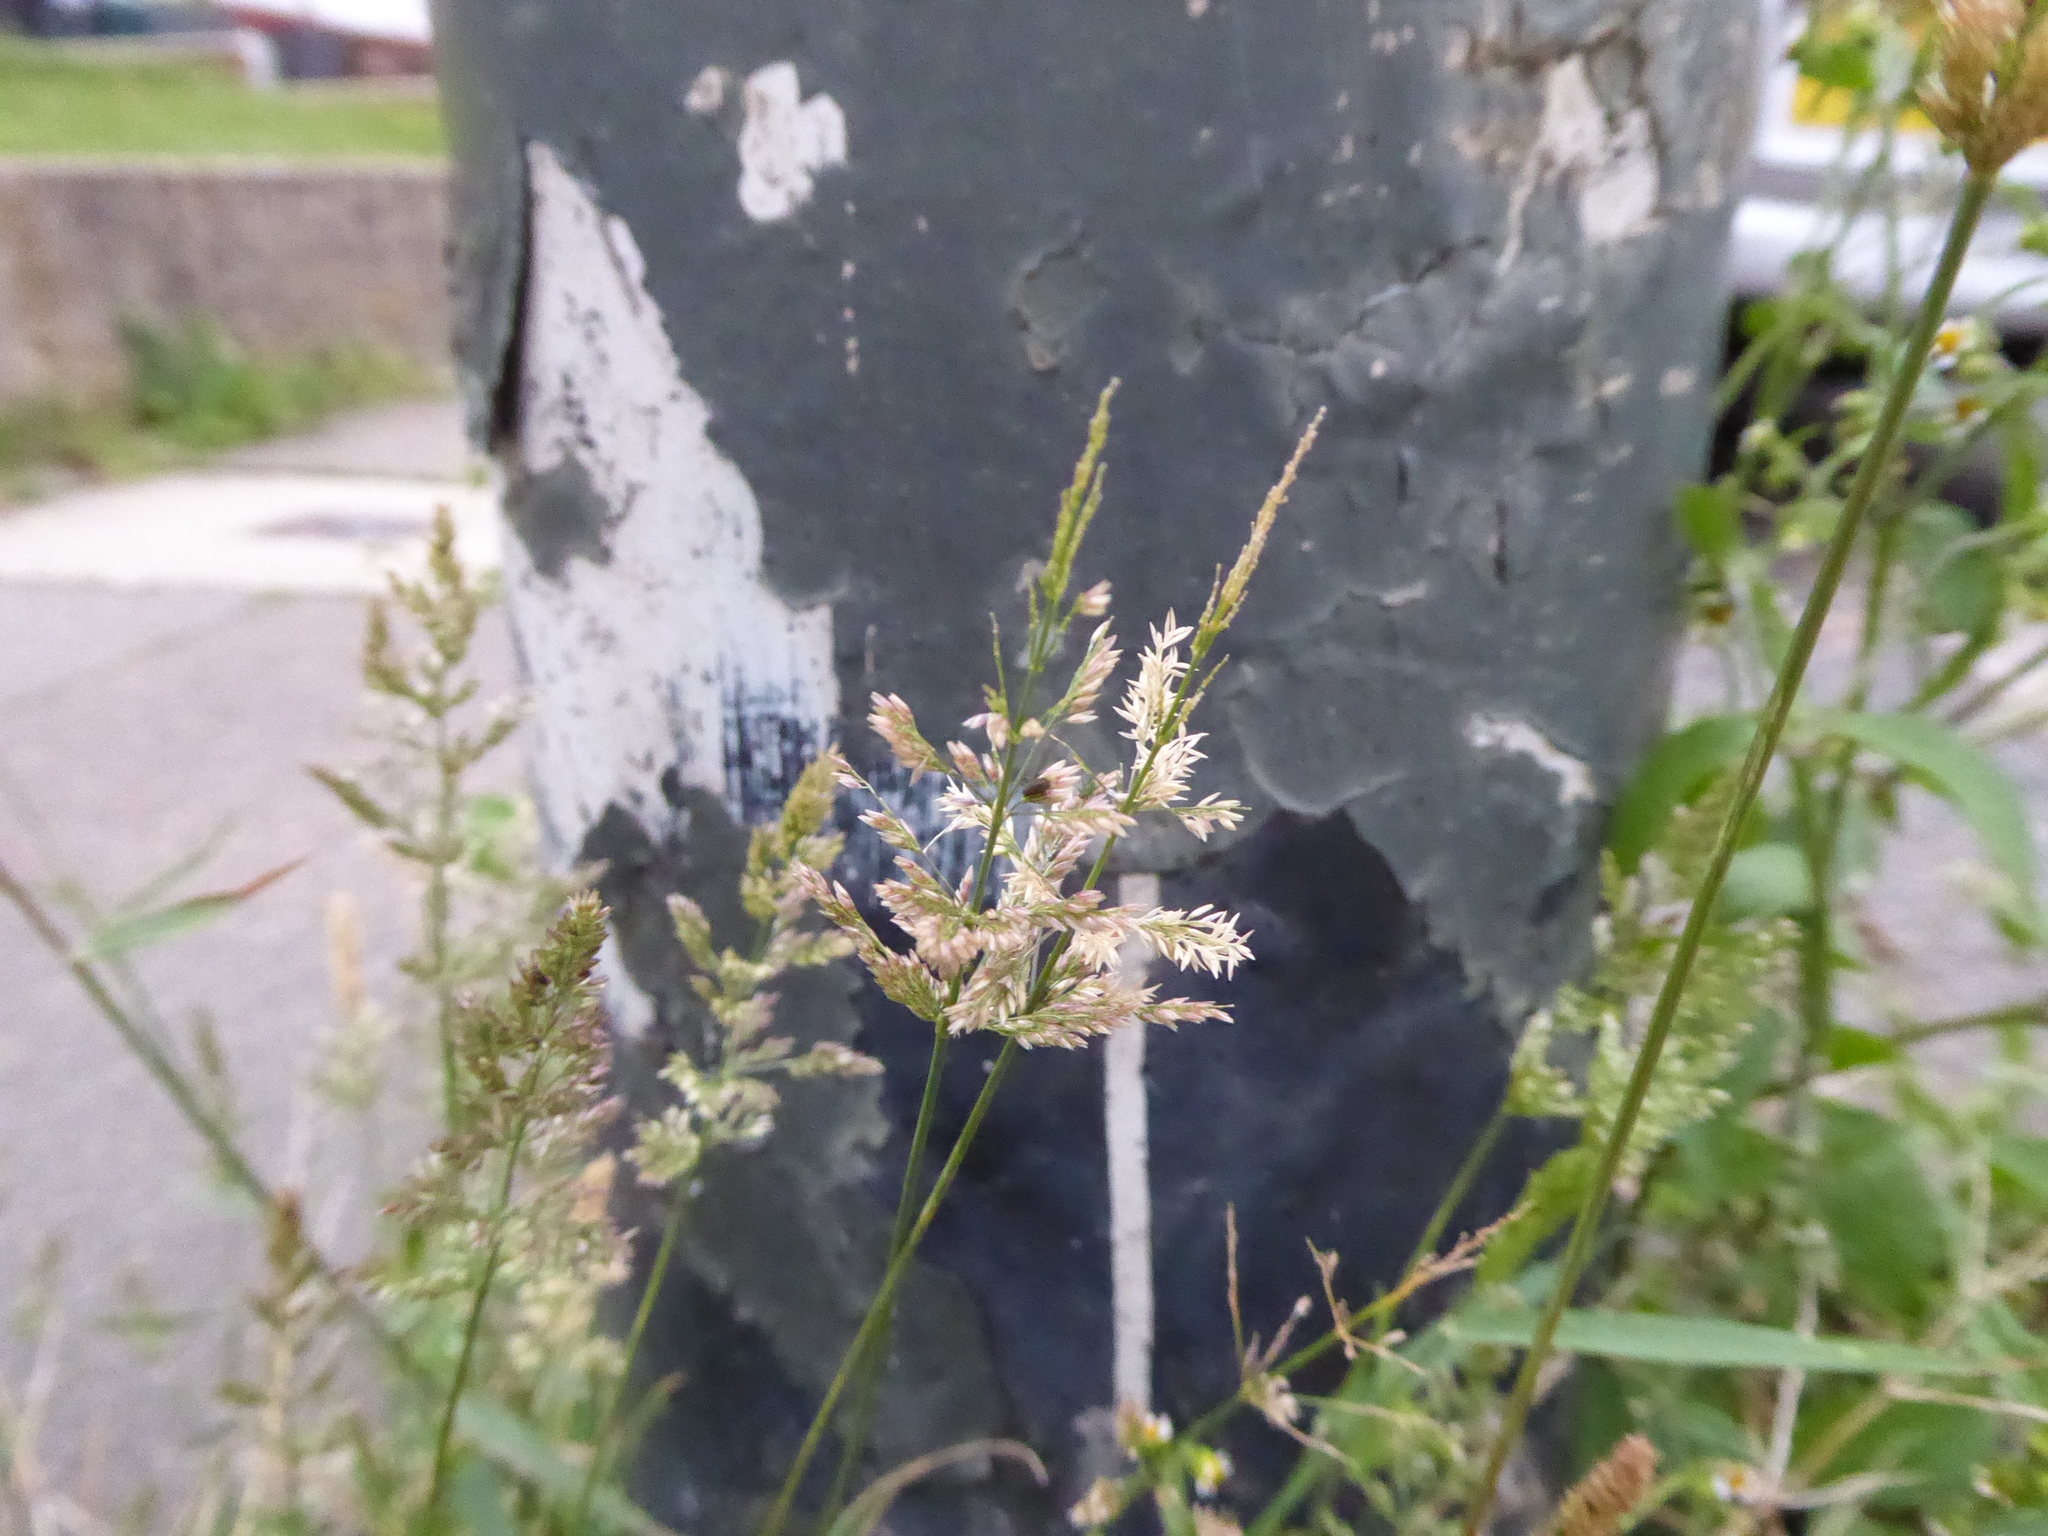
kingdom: Plantae
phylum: Tracheophyta
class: Liliopsida
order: Poales
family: Poaceae
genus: Polypogon
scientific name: Polypogon viridis
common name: Water bent
